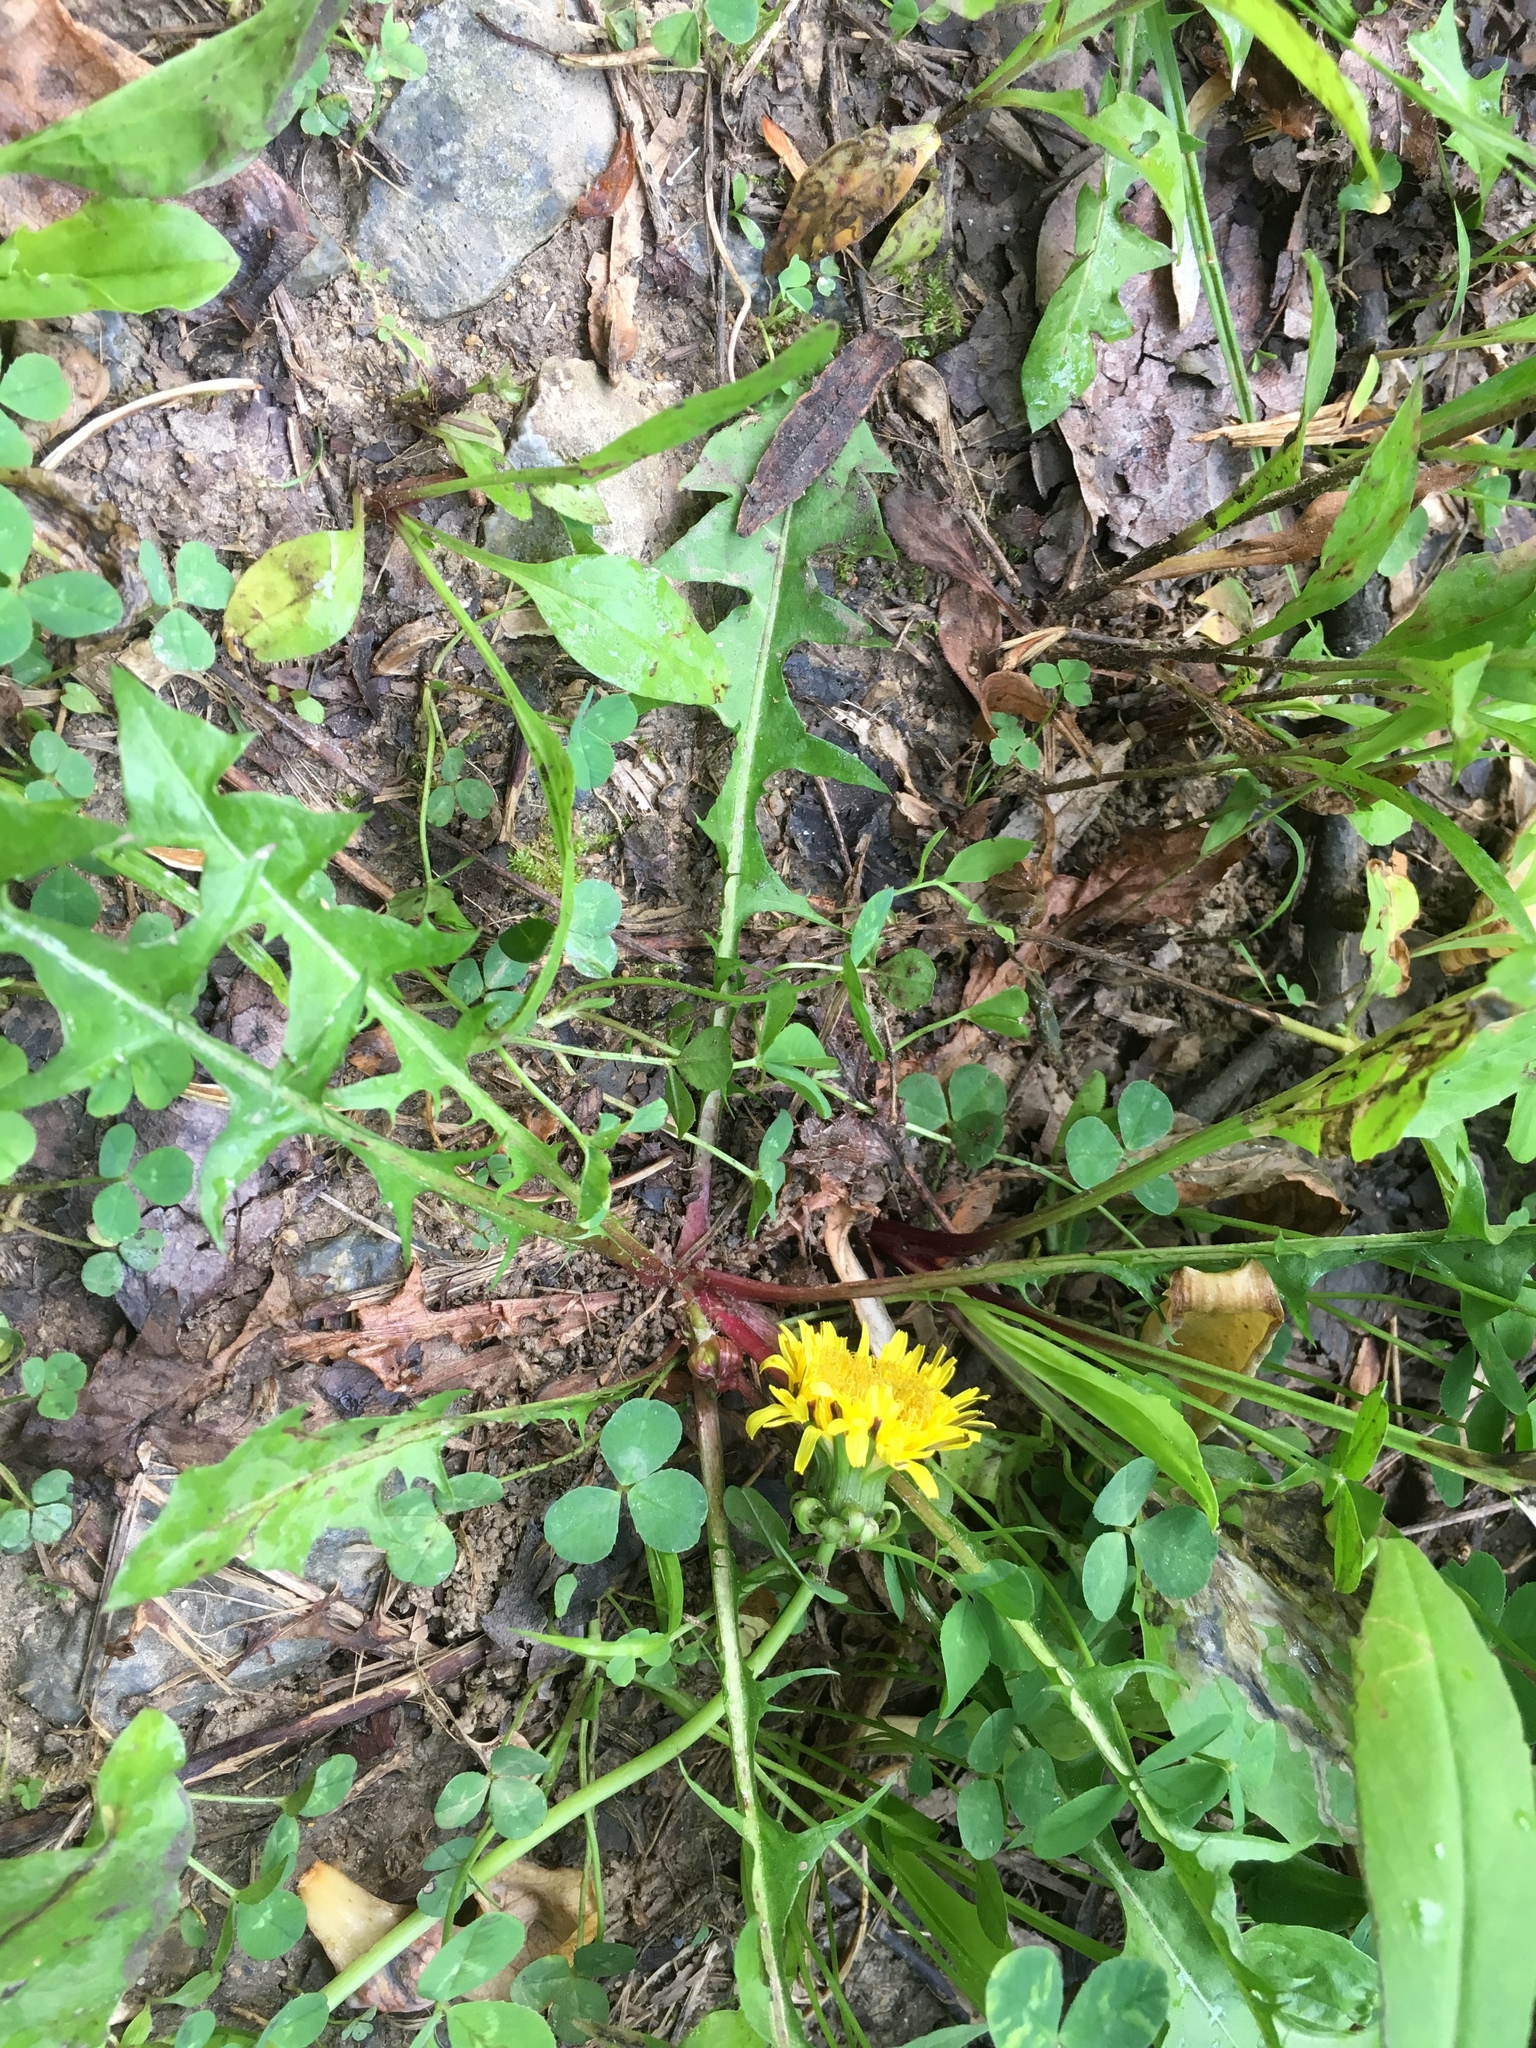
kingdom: Plantae
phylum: Tracheophyta
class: Magnoliopsida
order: Asterales
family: Asteraceae
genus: Taraxacum
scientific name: Taraxacum officinale
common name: Common dandelion
